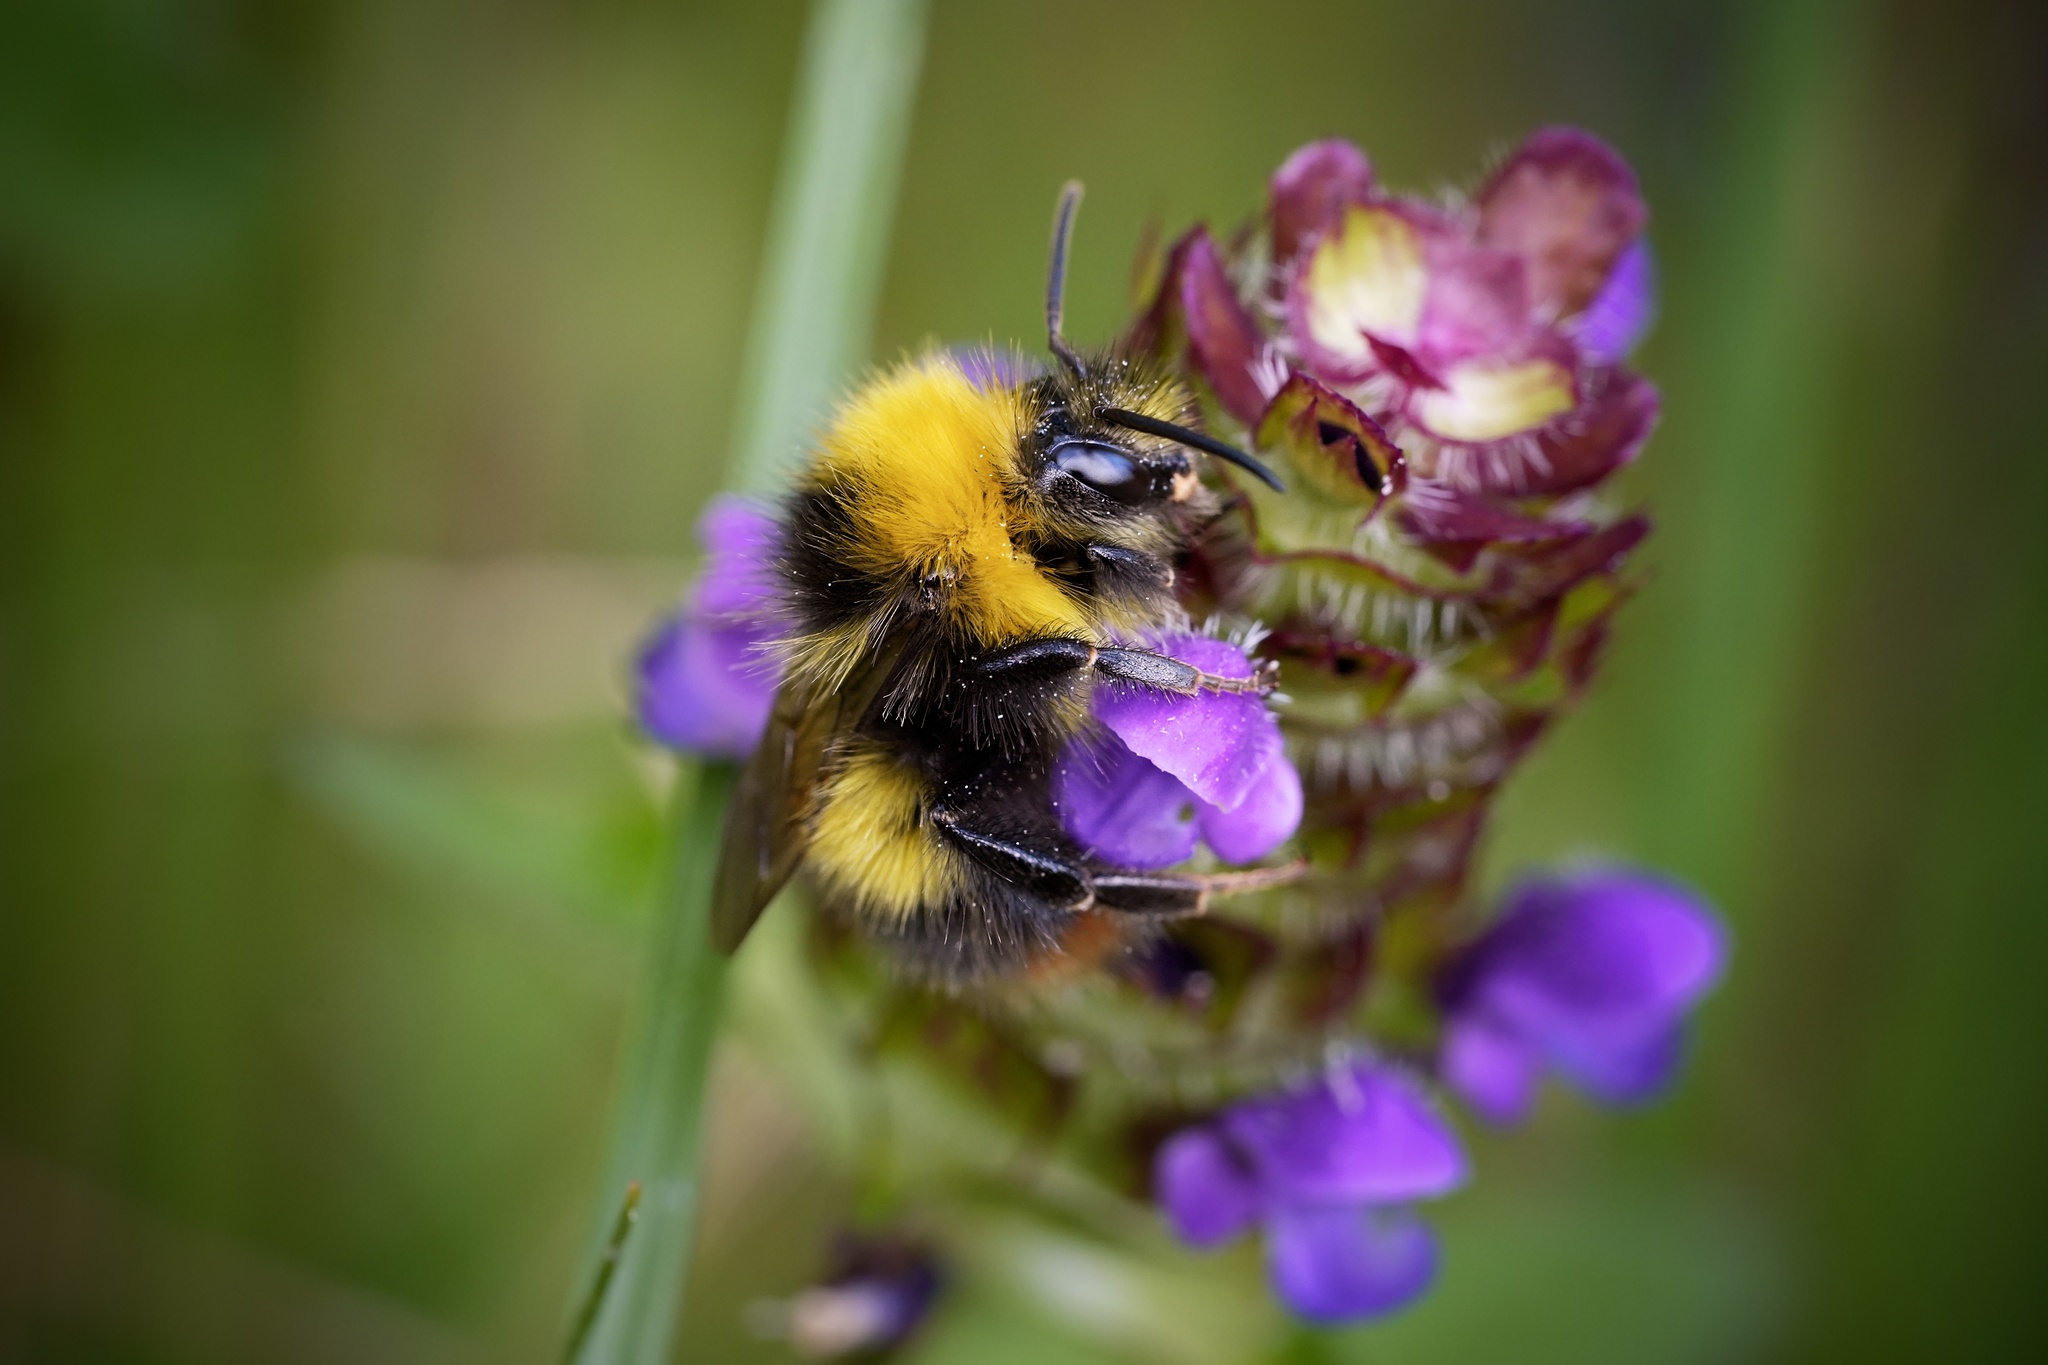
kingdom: Animalia
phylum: Arthropoda
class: Insecta
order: Hymenoptera
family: Apidae
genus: Bombus
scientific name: Bombus pratorum
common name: Early humble-bee
